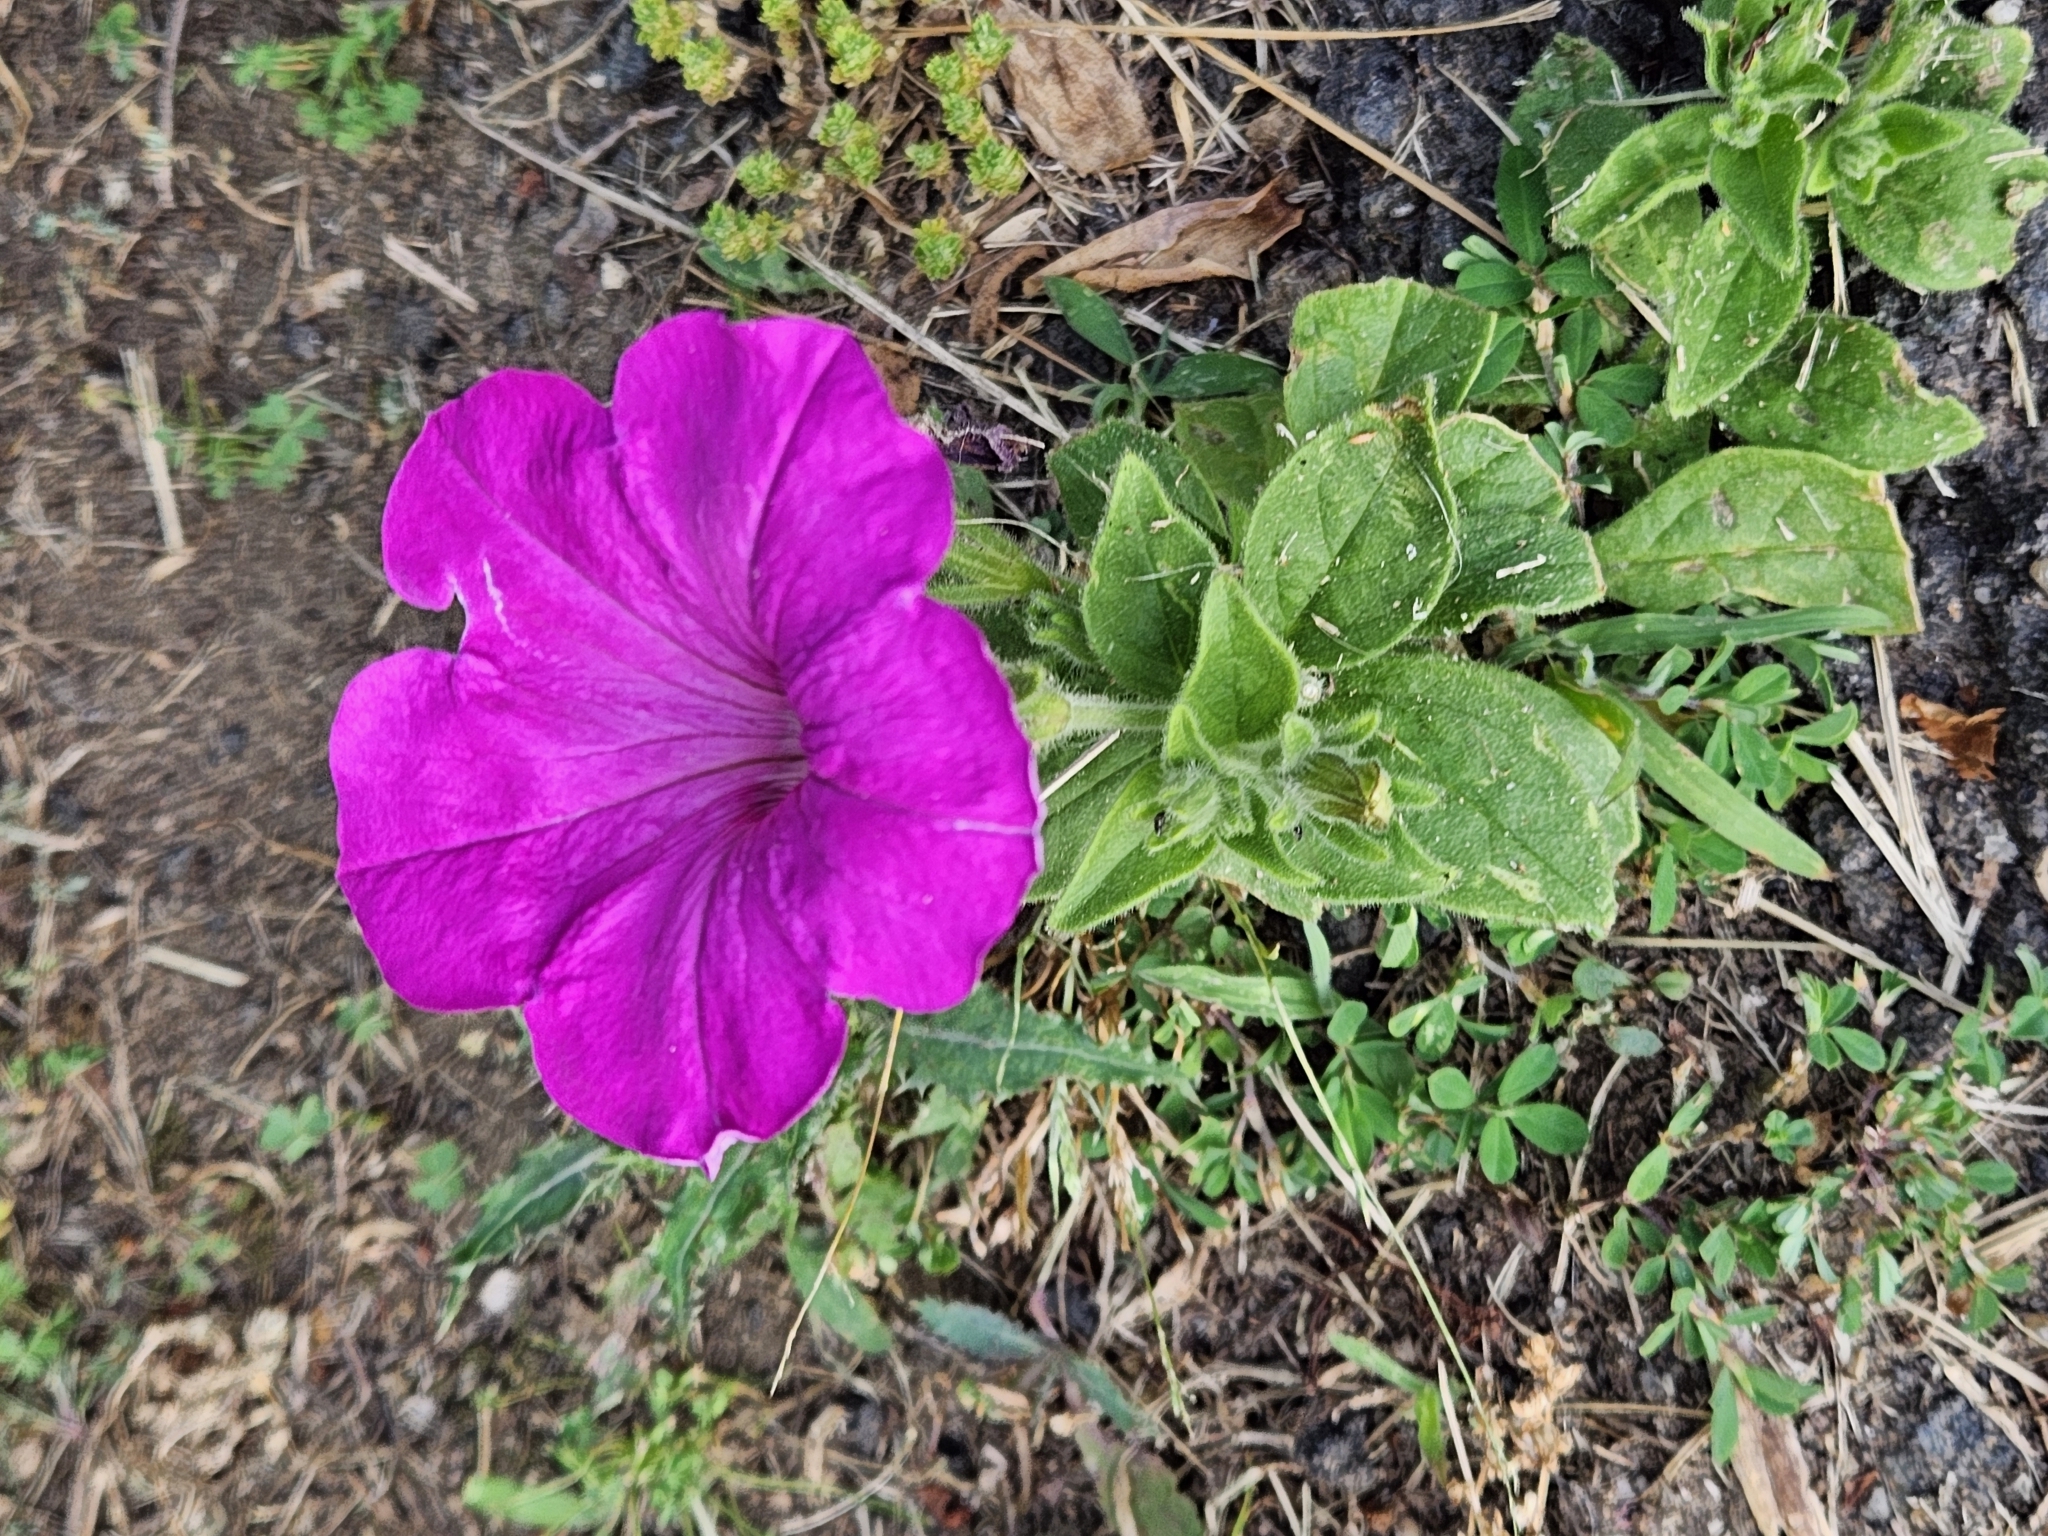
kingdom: Plantae
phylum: Tracheophyta
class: Magnoliopsida
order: Solanales
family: Solanaceae
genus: Petunia
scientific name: Petunia atkinsiana
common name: Petunia
